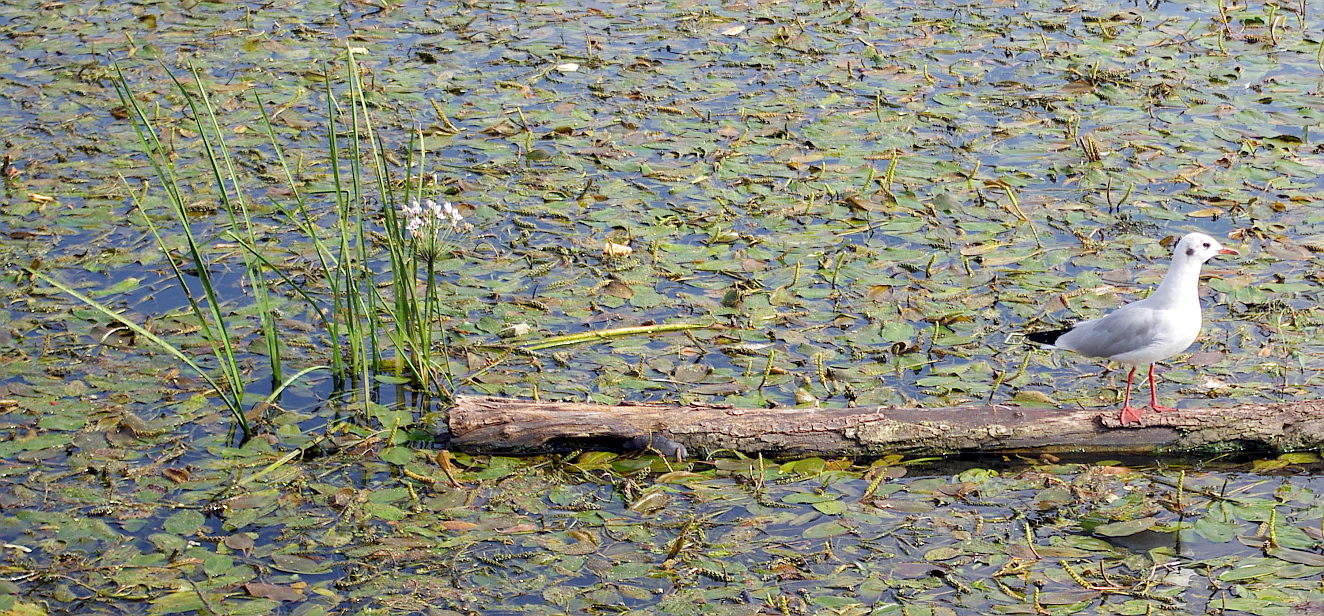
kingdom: Plantae
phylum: Tracheophyta
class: Liliopsida
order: Alismatales
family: Butomaceae
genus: Butomus
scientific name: Butomus umbellatus
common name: Flowering-rush
